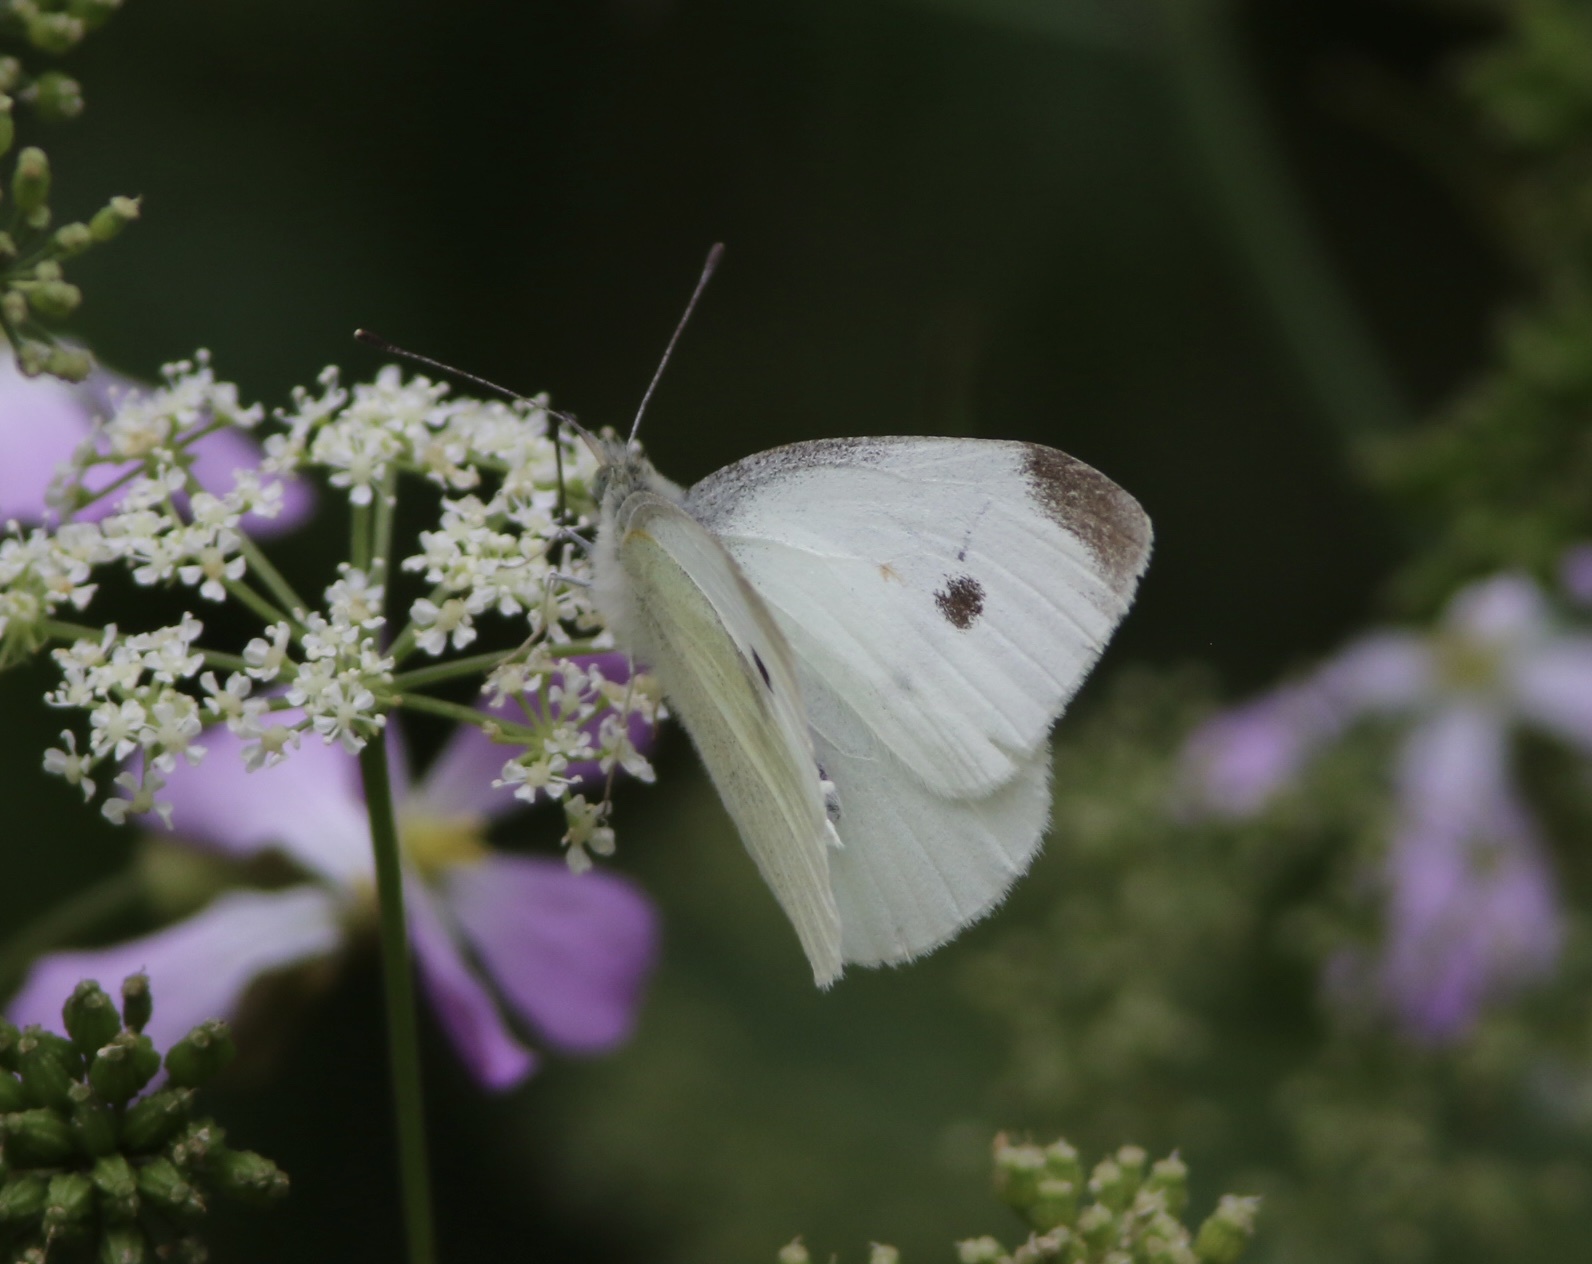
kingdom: Animalia
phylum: Arthropoda
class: Insecta
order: Lepidoptera
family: Pieridae
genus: Pieris
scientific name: Pieris rapae
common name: Small white
